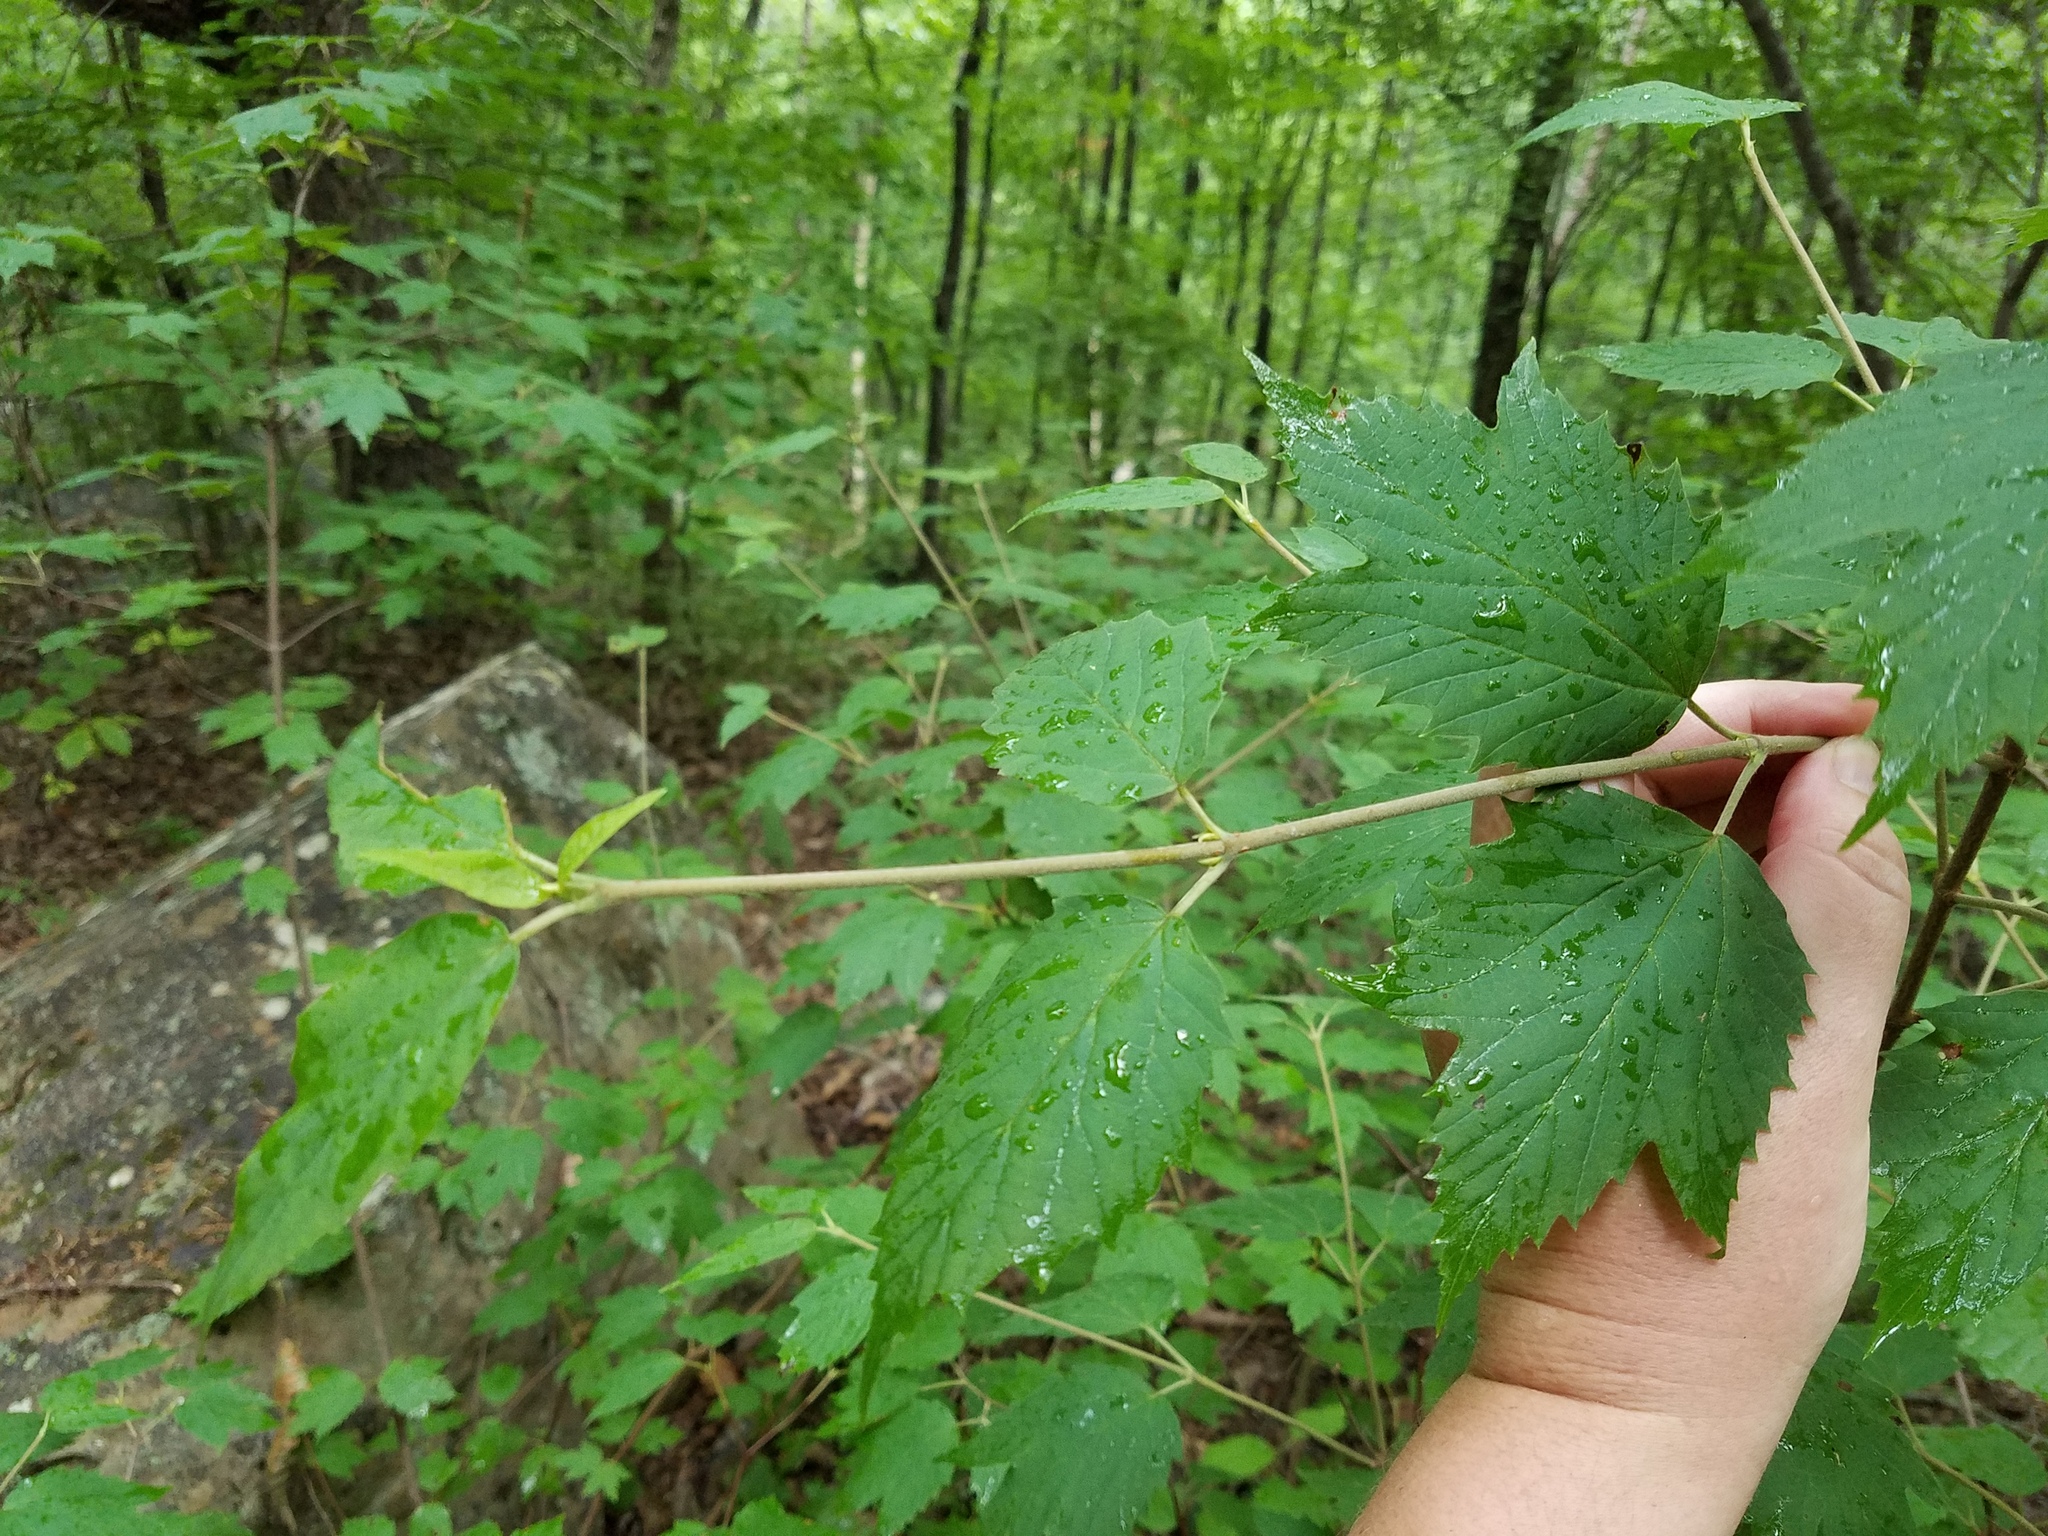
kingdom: Plantae
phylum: Tracheophyta
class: Magnoliopsida
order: Dipsacales
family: Viburnaceae
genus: Viburnum
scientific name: Viburnum acerifolium
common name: Dockmackie
